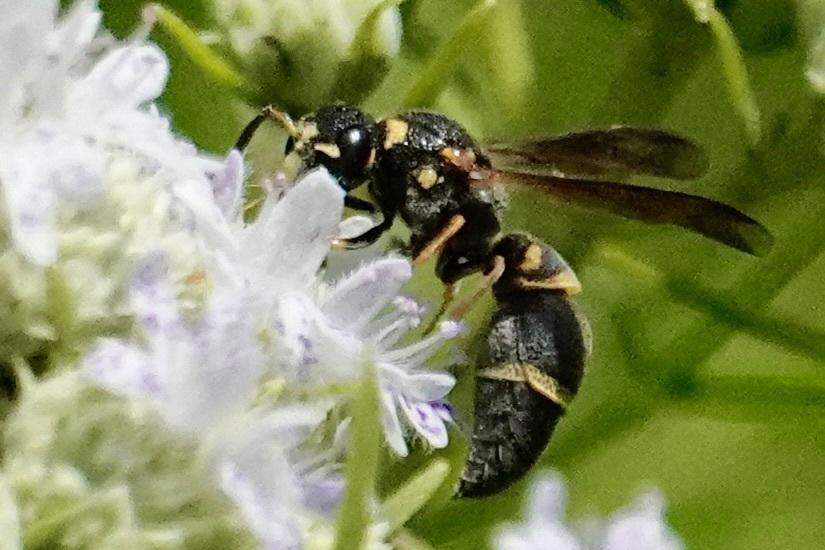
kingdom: Animalia
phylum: Arthropoda
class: Insecta
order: Hymenoptera
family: Eumenidae
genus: Parancistrocerus
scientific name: Parancistrocerus fulvipes
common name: Potter wasp
